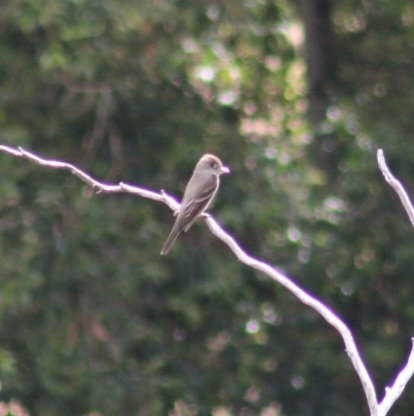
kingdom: Animalia
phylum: Chordata
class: Aves
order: Passeriformes
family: Tyrannidae
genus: Contopus
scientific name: Contopus sordidulus
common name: Western wood-pewee
